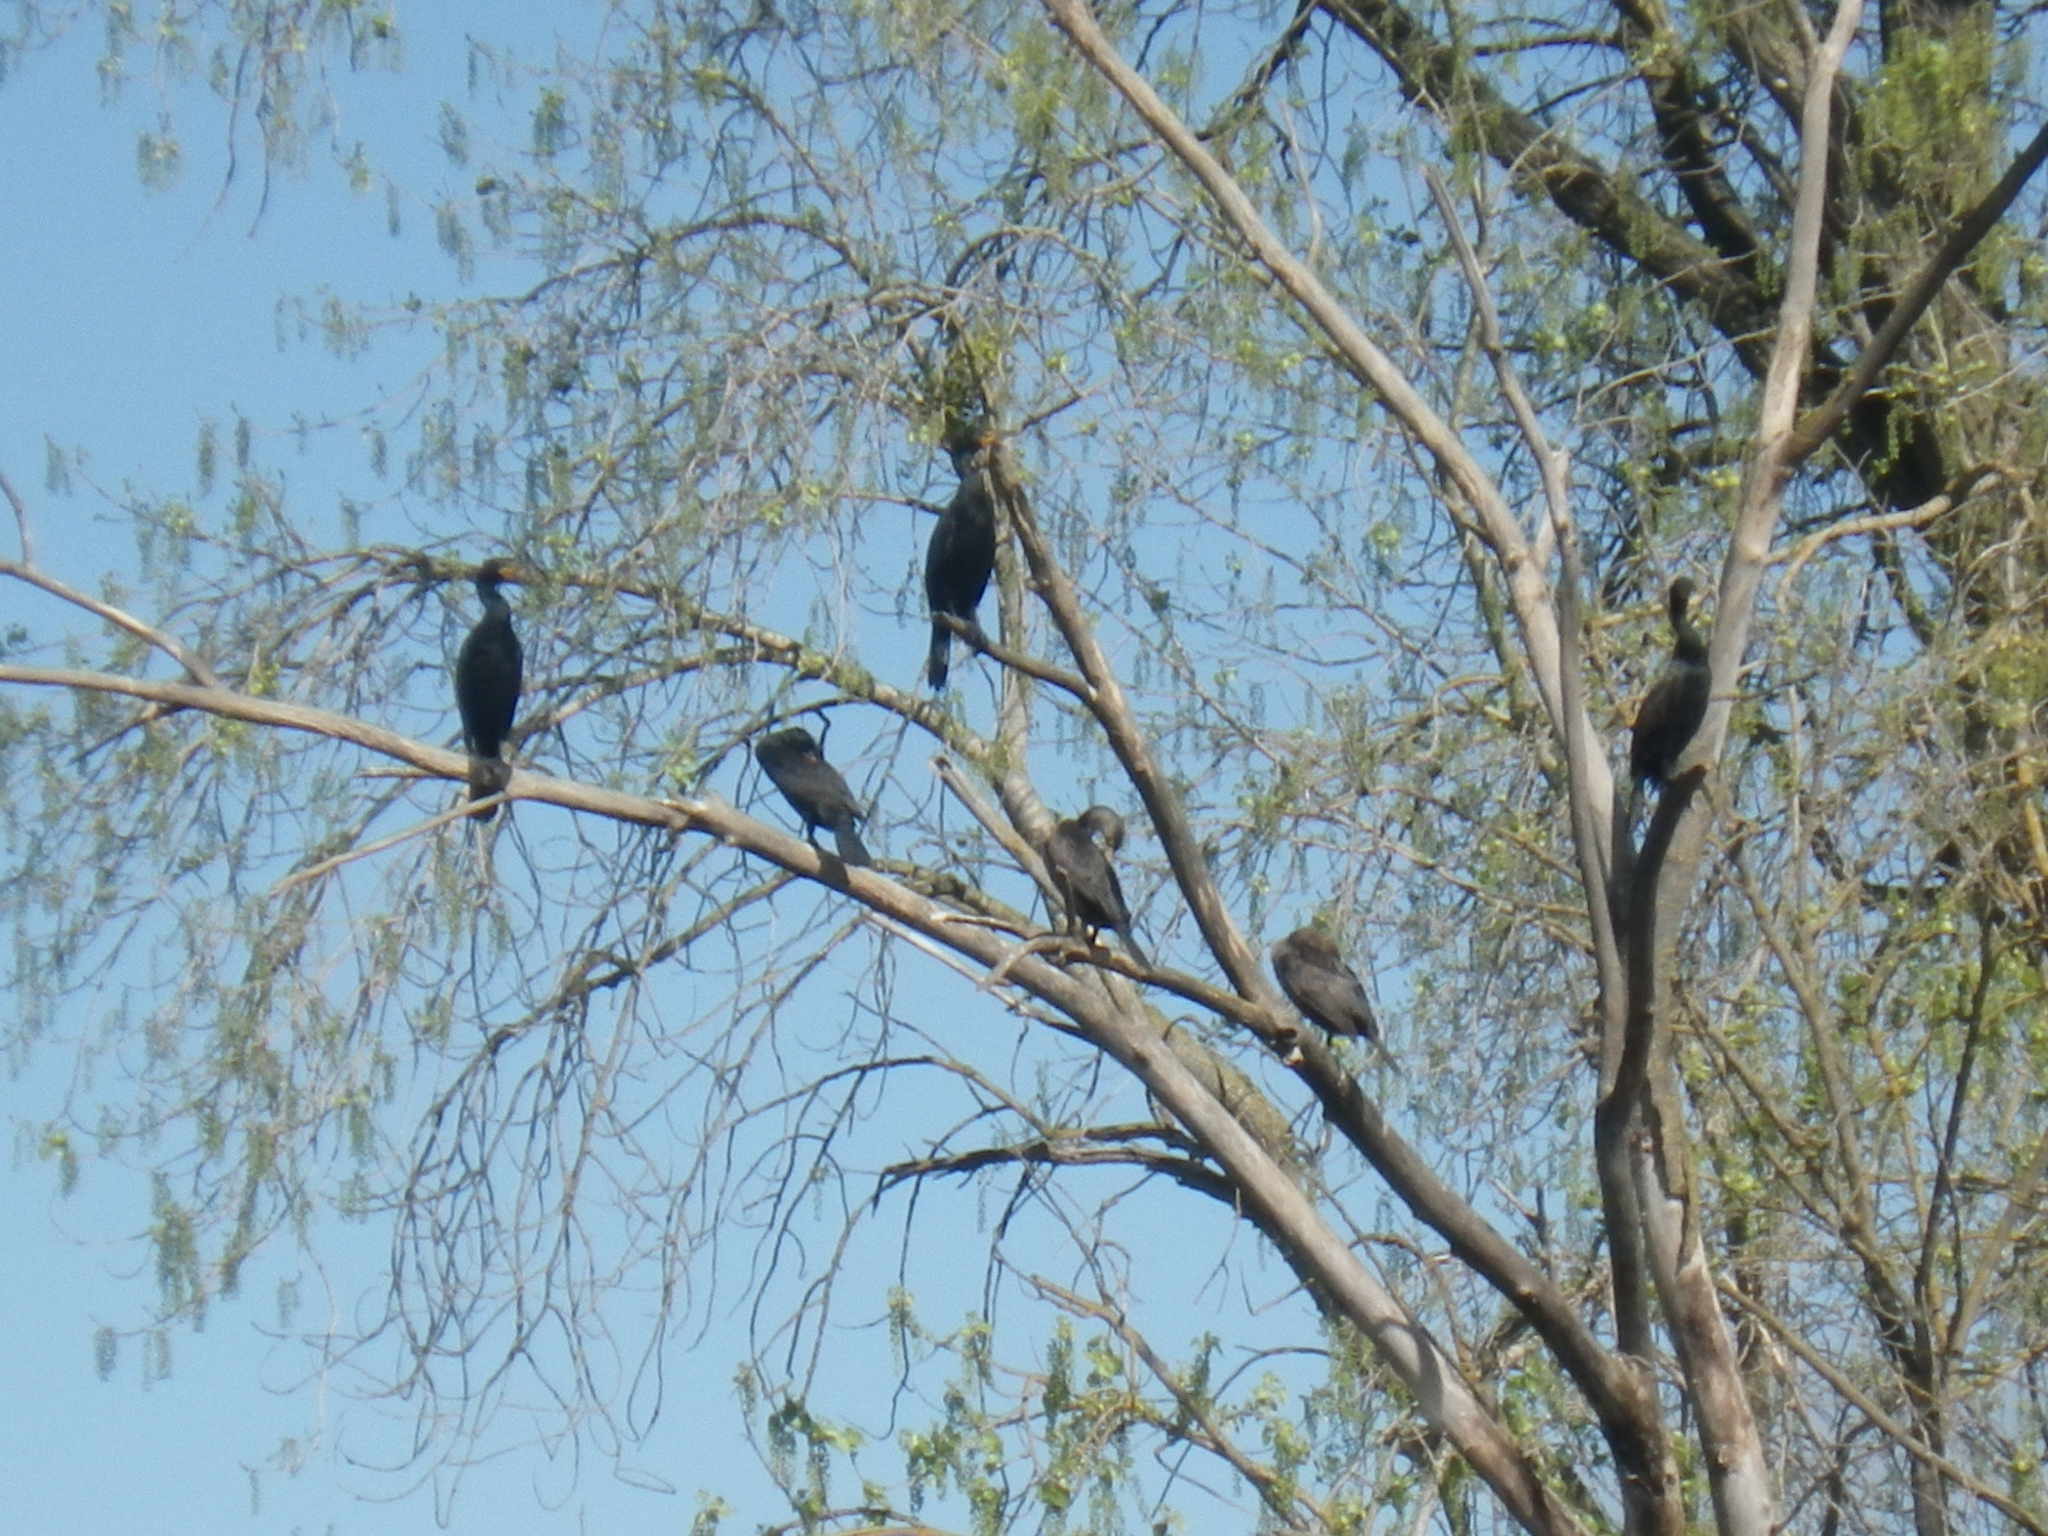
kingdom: Animalia
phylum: Chordata
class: Aves
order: Suliformes
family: Phalacrocoracidae
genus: Phalacrocorax
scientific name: Phalacrocorax auritus
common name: Double-crested cormorant
